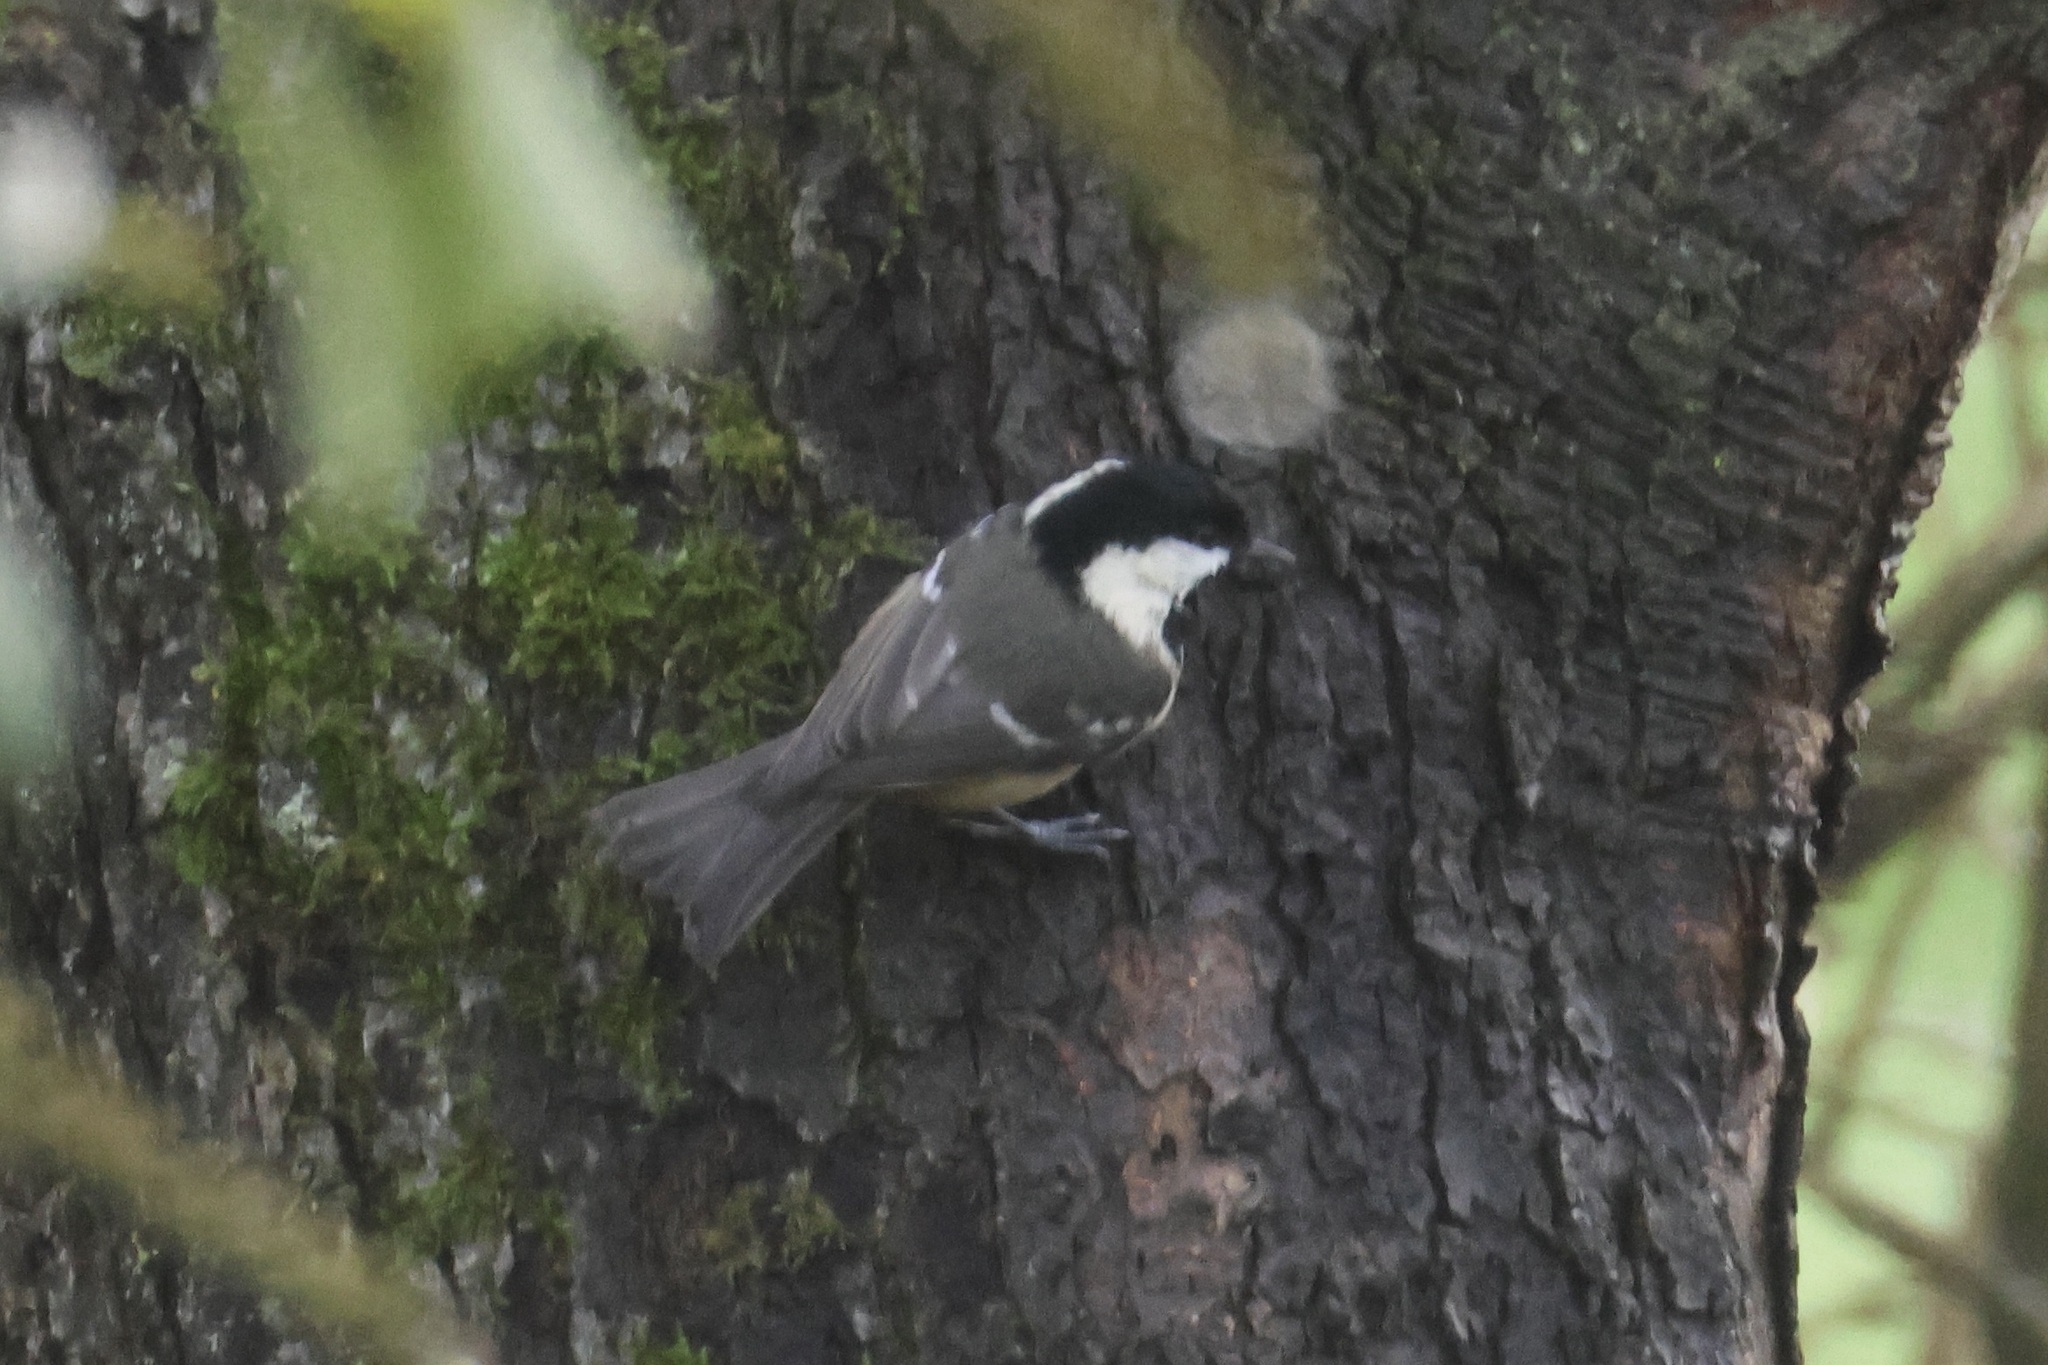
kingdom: Animalia
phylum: Chordata
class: Aves
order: Passeriformes
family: Paridae
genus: Periparus
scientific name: Periparus ater
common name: Coal tit
